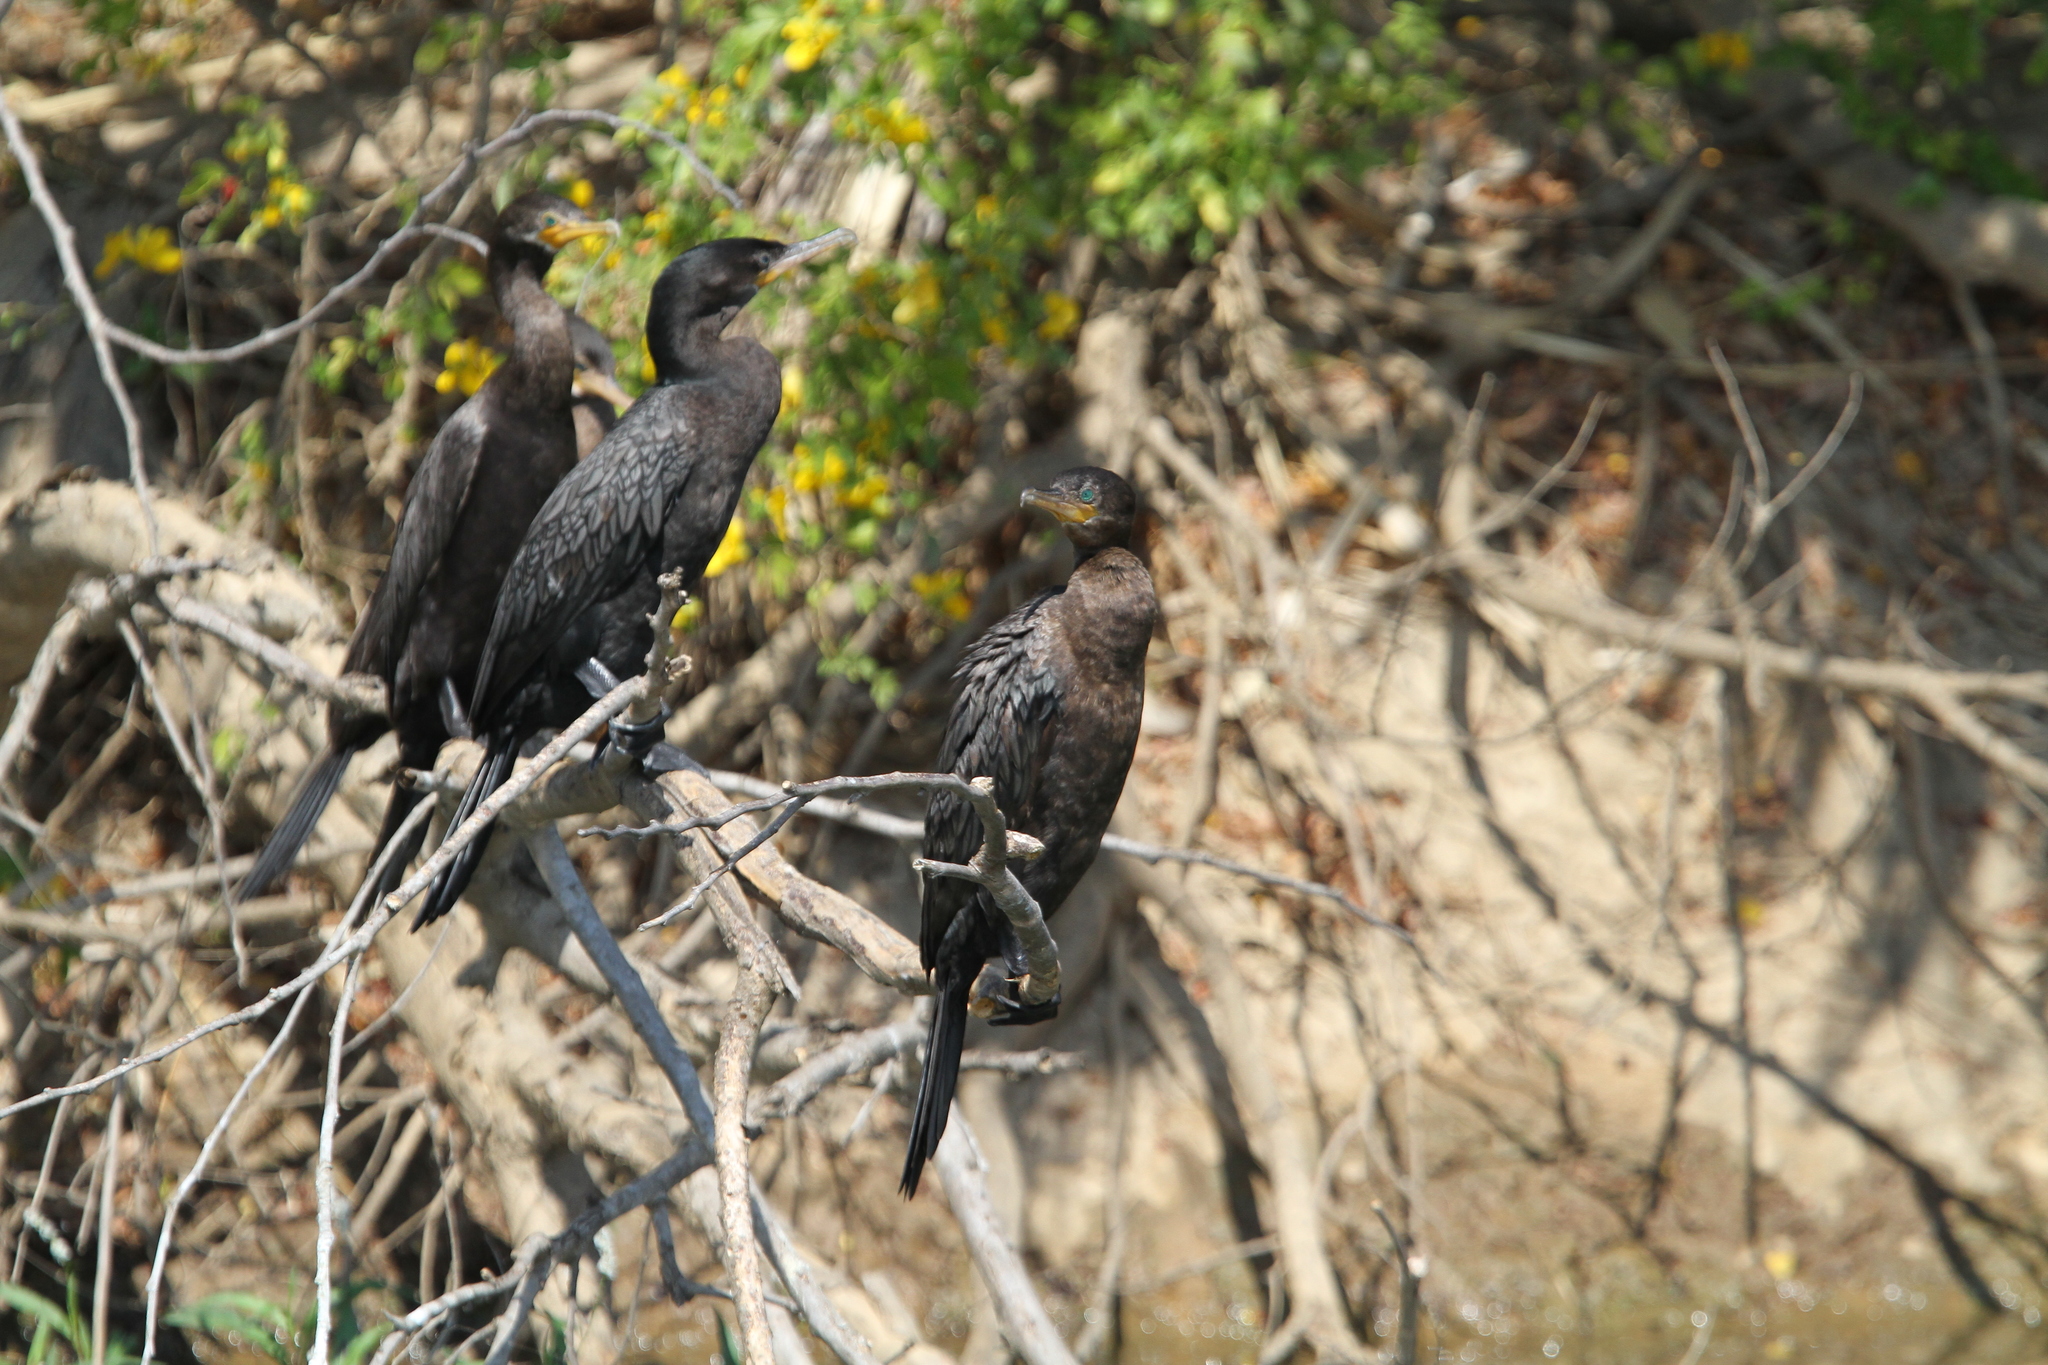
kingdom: Animalia
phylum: Chordata
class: Aves
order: Suliformes
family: Phalacrocoracidae
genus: Phalacrocorax
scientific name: Phalacrocorax brasilianus
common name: Neotropic cormorant
